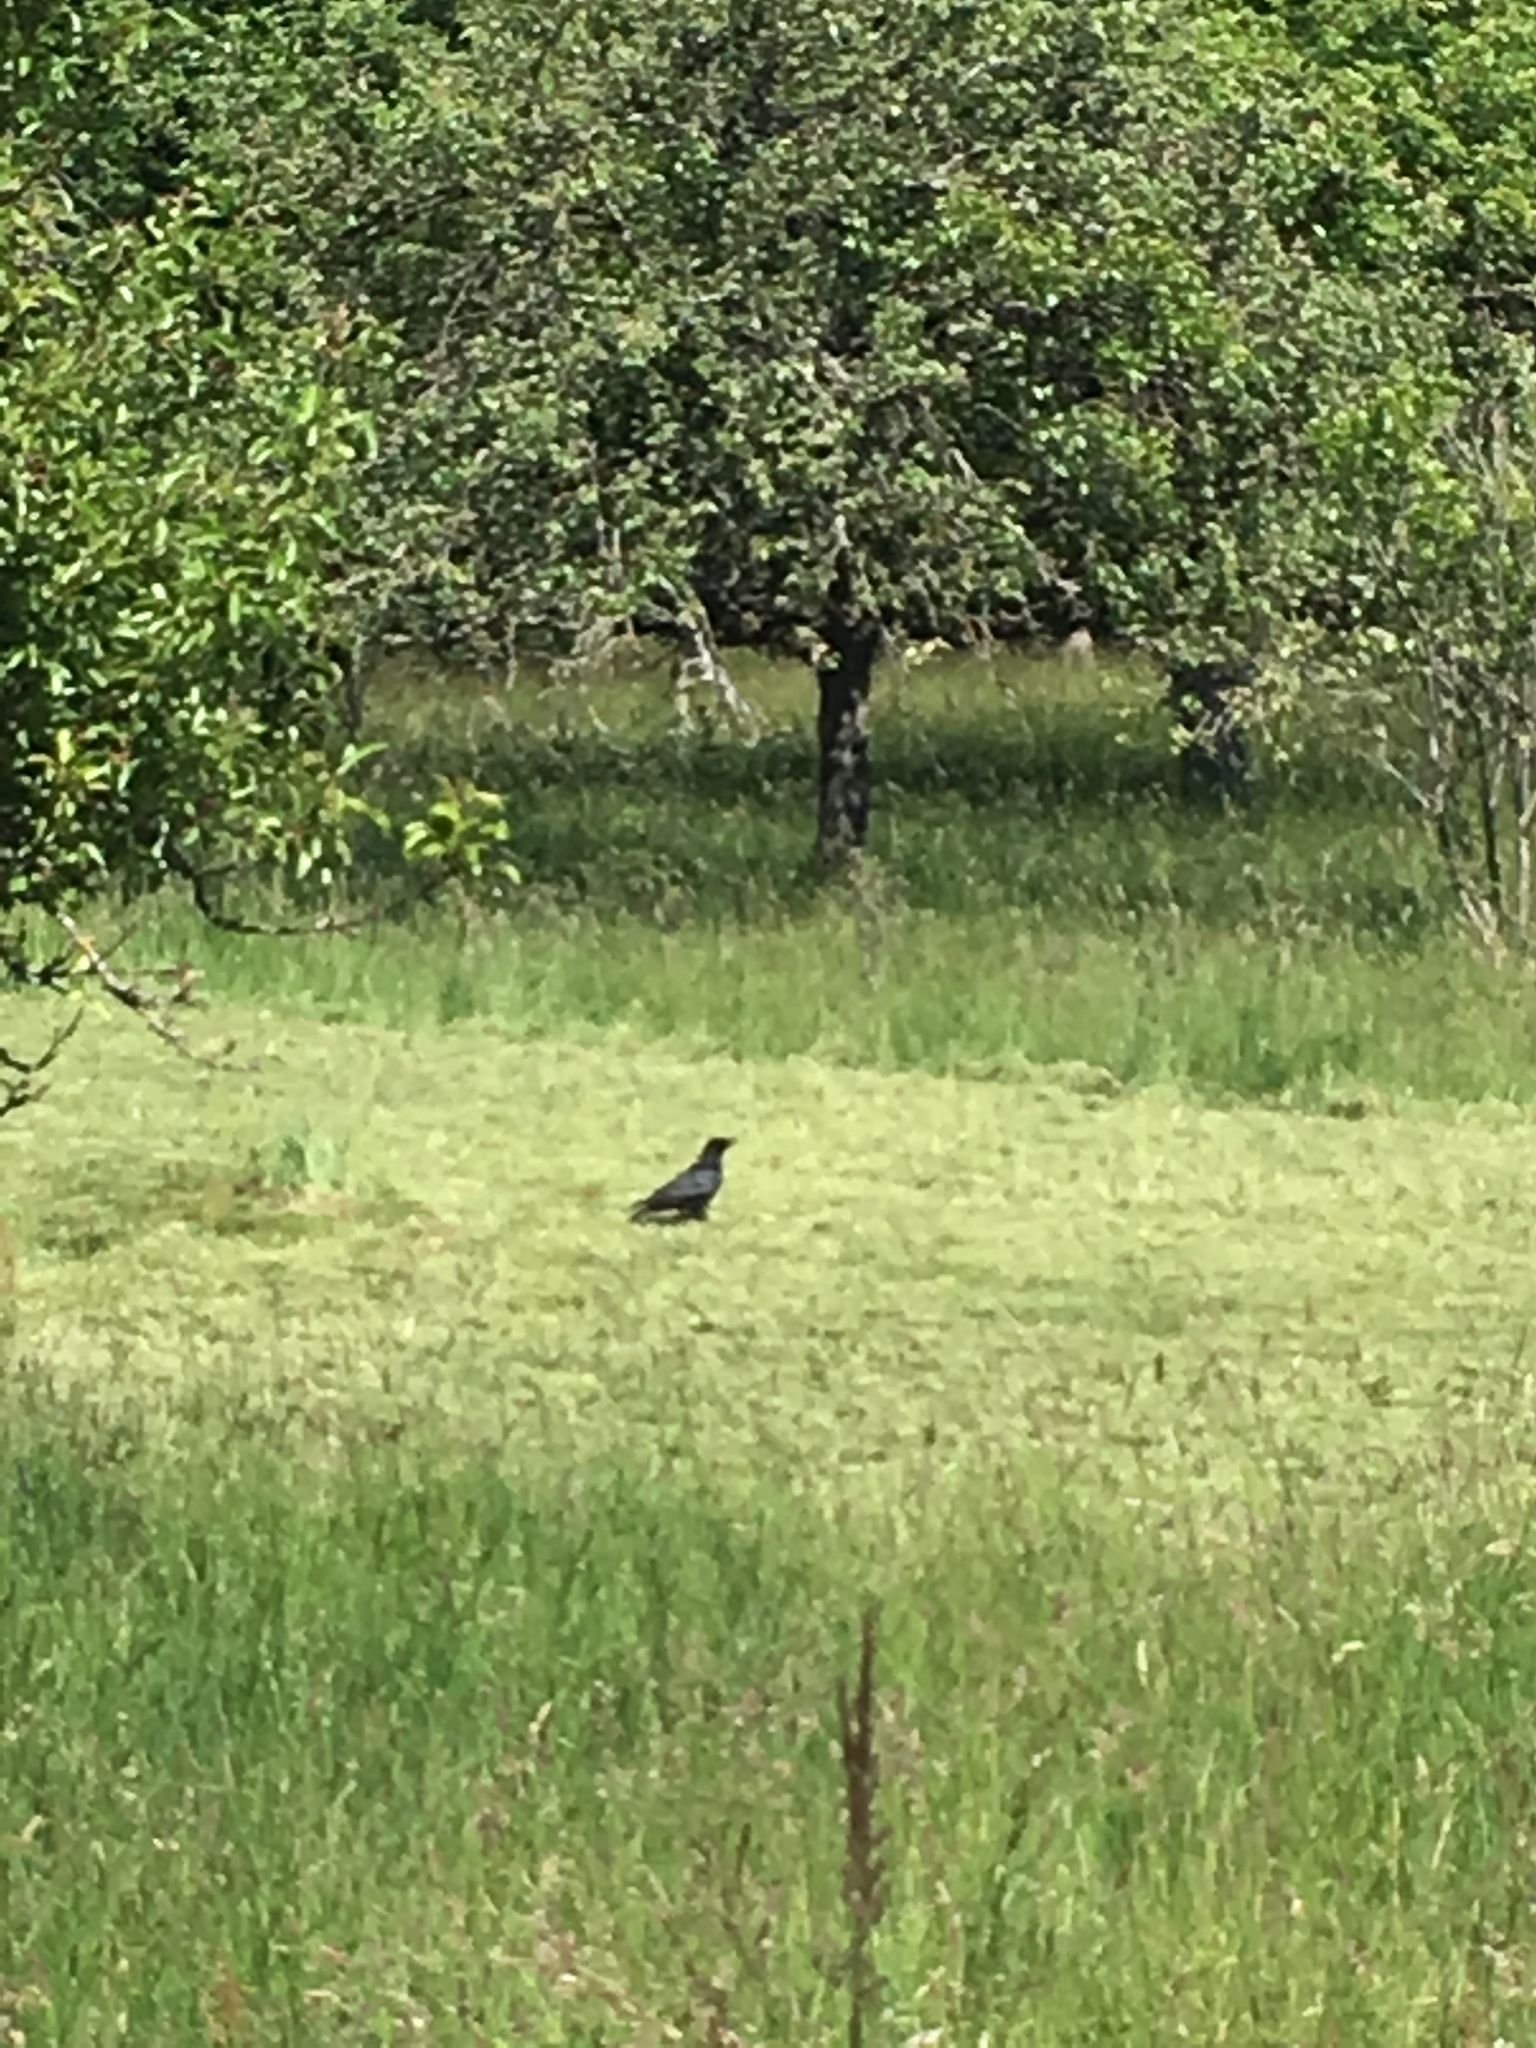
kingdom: Animalia
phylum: Chordata
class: Aves
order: Passeriformes
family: Corvidae
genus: Corvus
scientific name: Corvus corone
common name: Carrion crow
